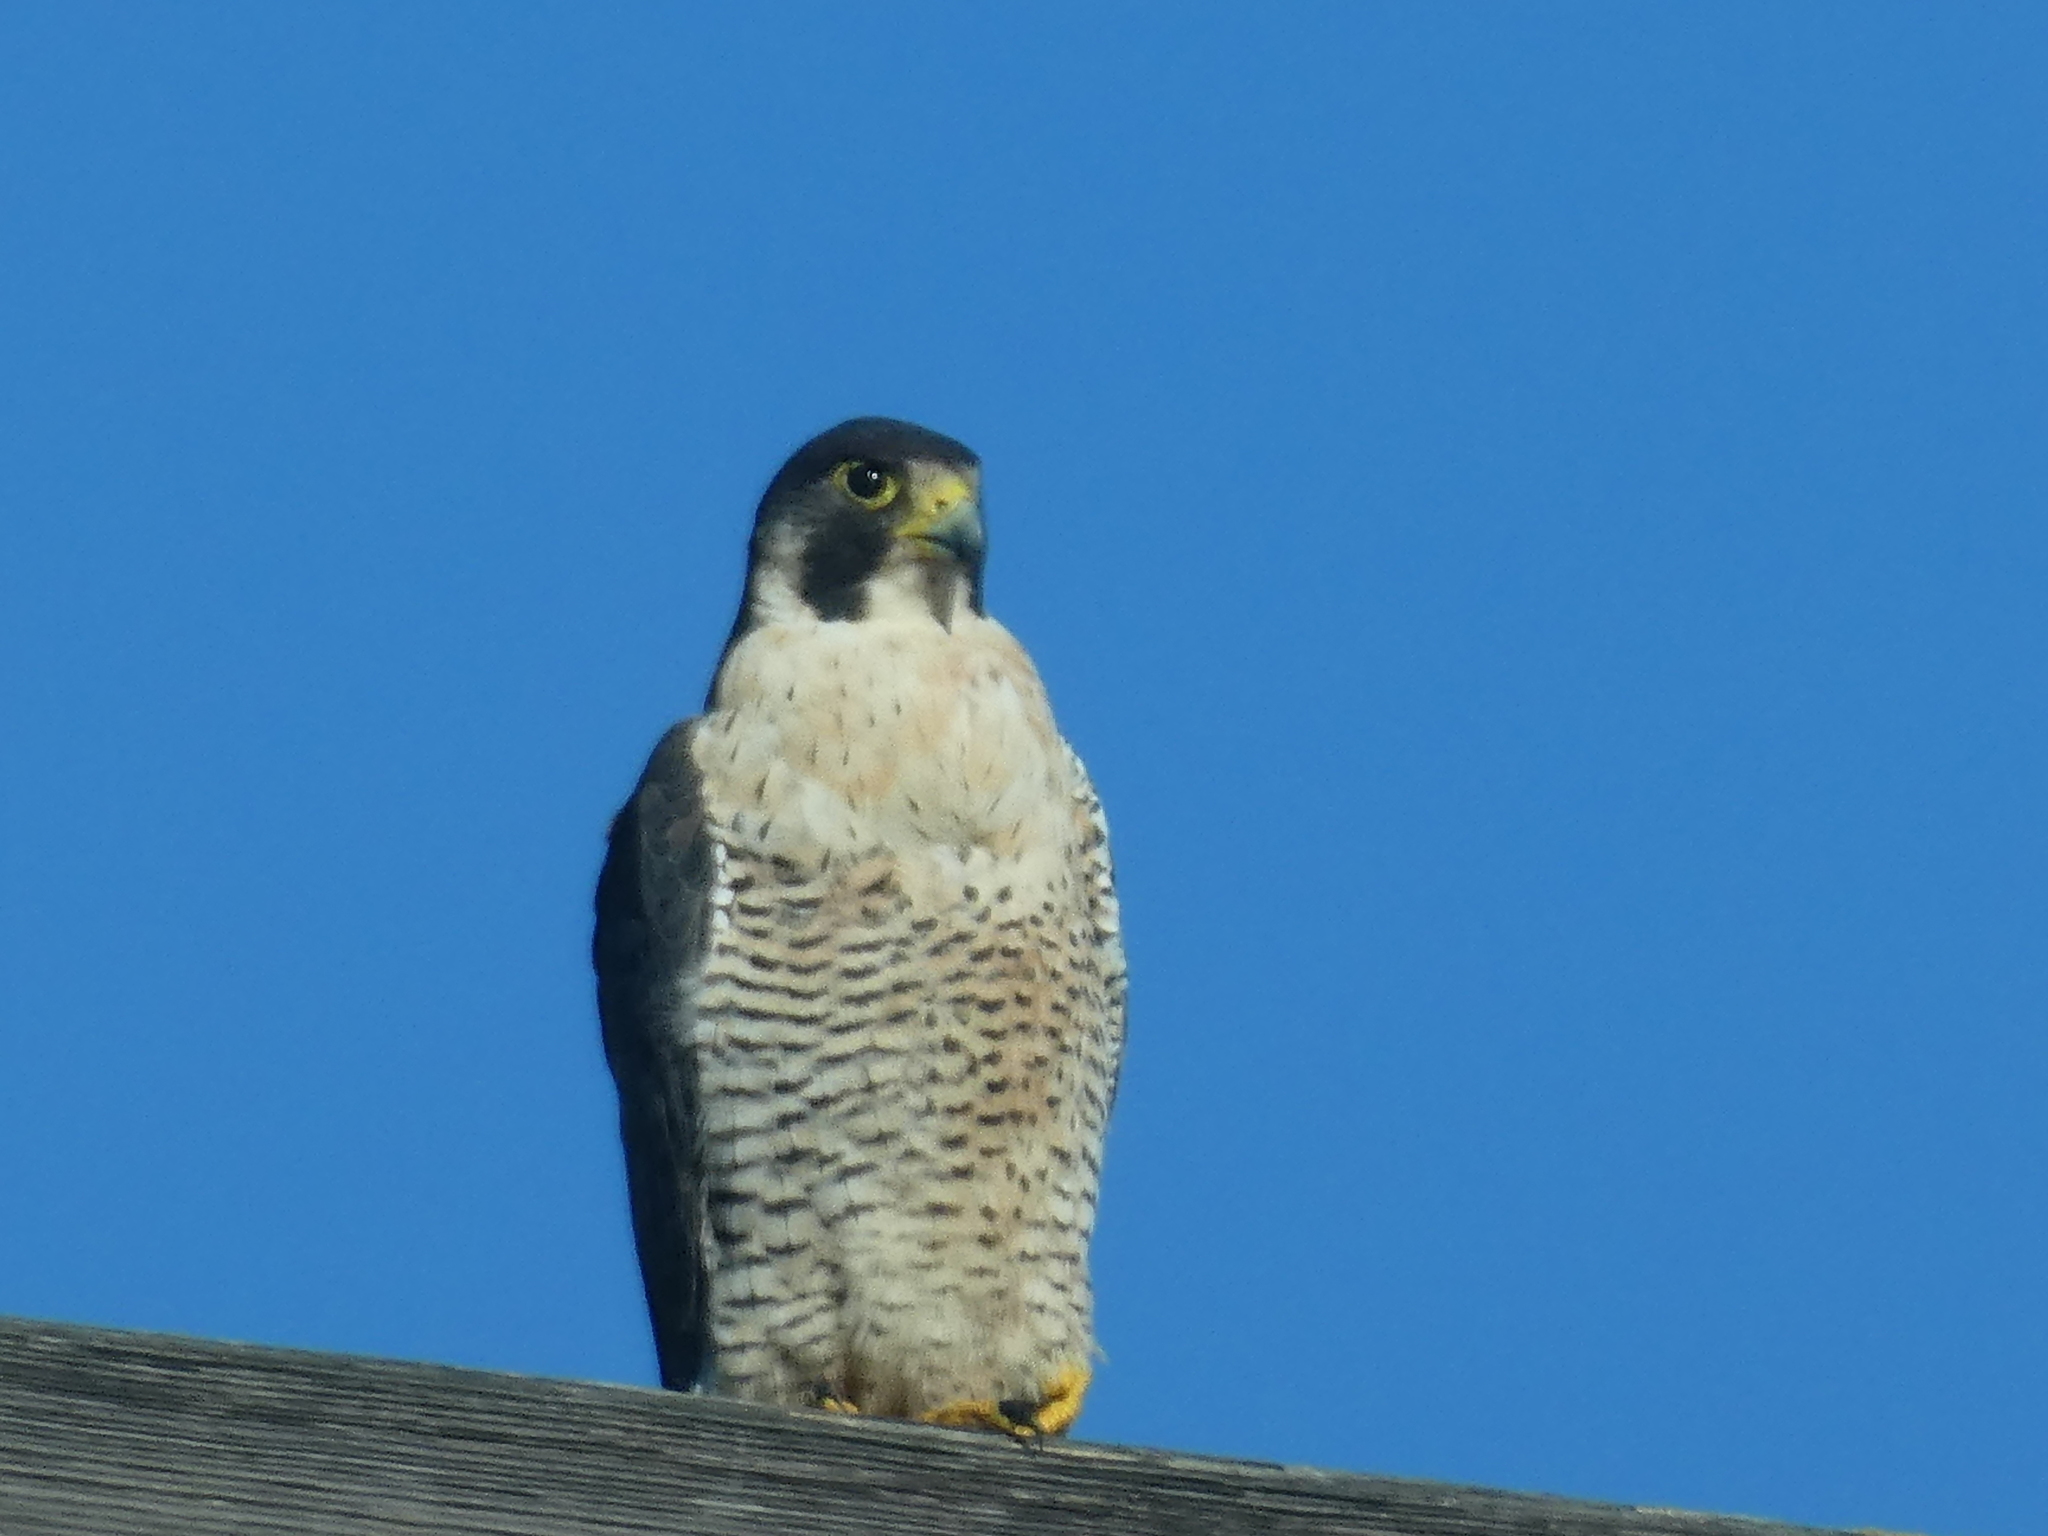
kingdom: Animalia
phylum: Chordata
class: Aves
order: Falconiformes
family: Falconidae
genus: Falco
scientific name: Falco peregrinus
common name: Peregrine falcon
